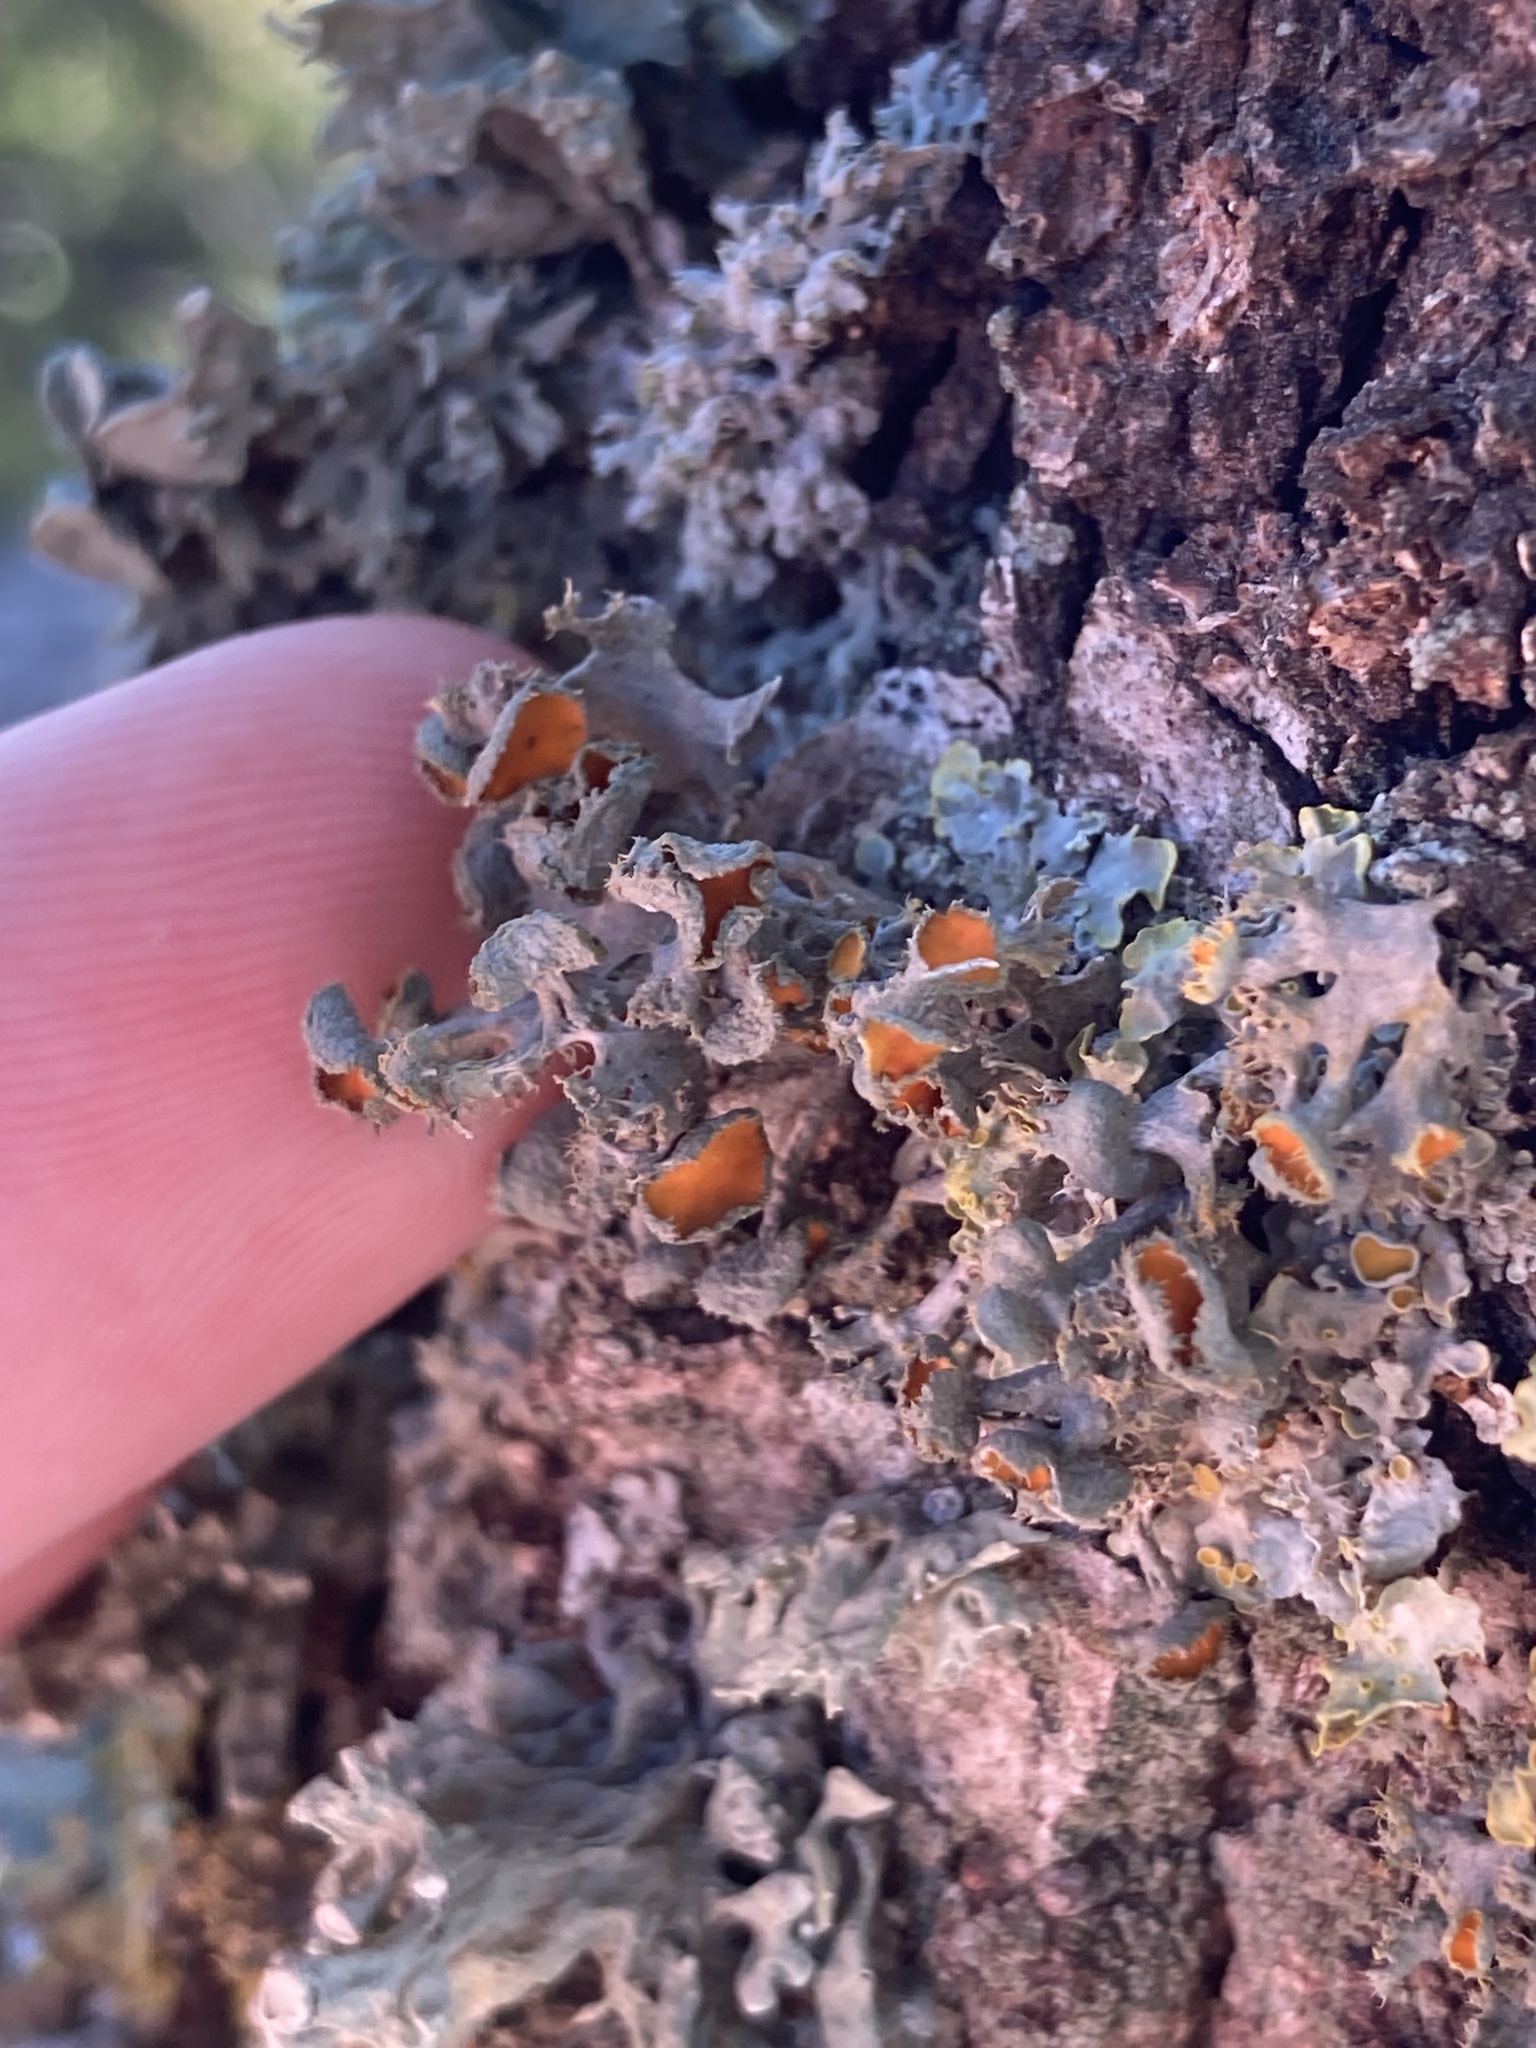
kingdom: Fungi
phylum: Ascomycota
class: Lecanoromycetes
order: Teloschistales
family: Teloschistaceae
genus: Niorma
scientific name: Niorma chrysophthalma
